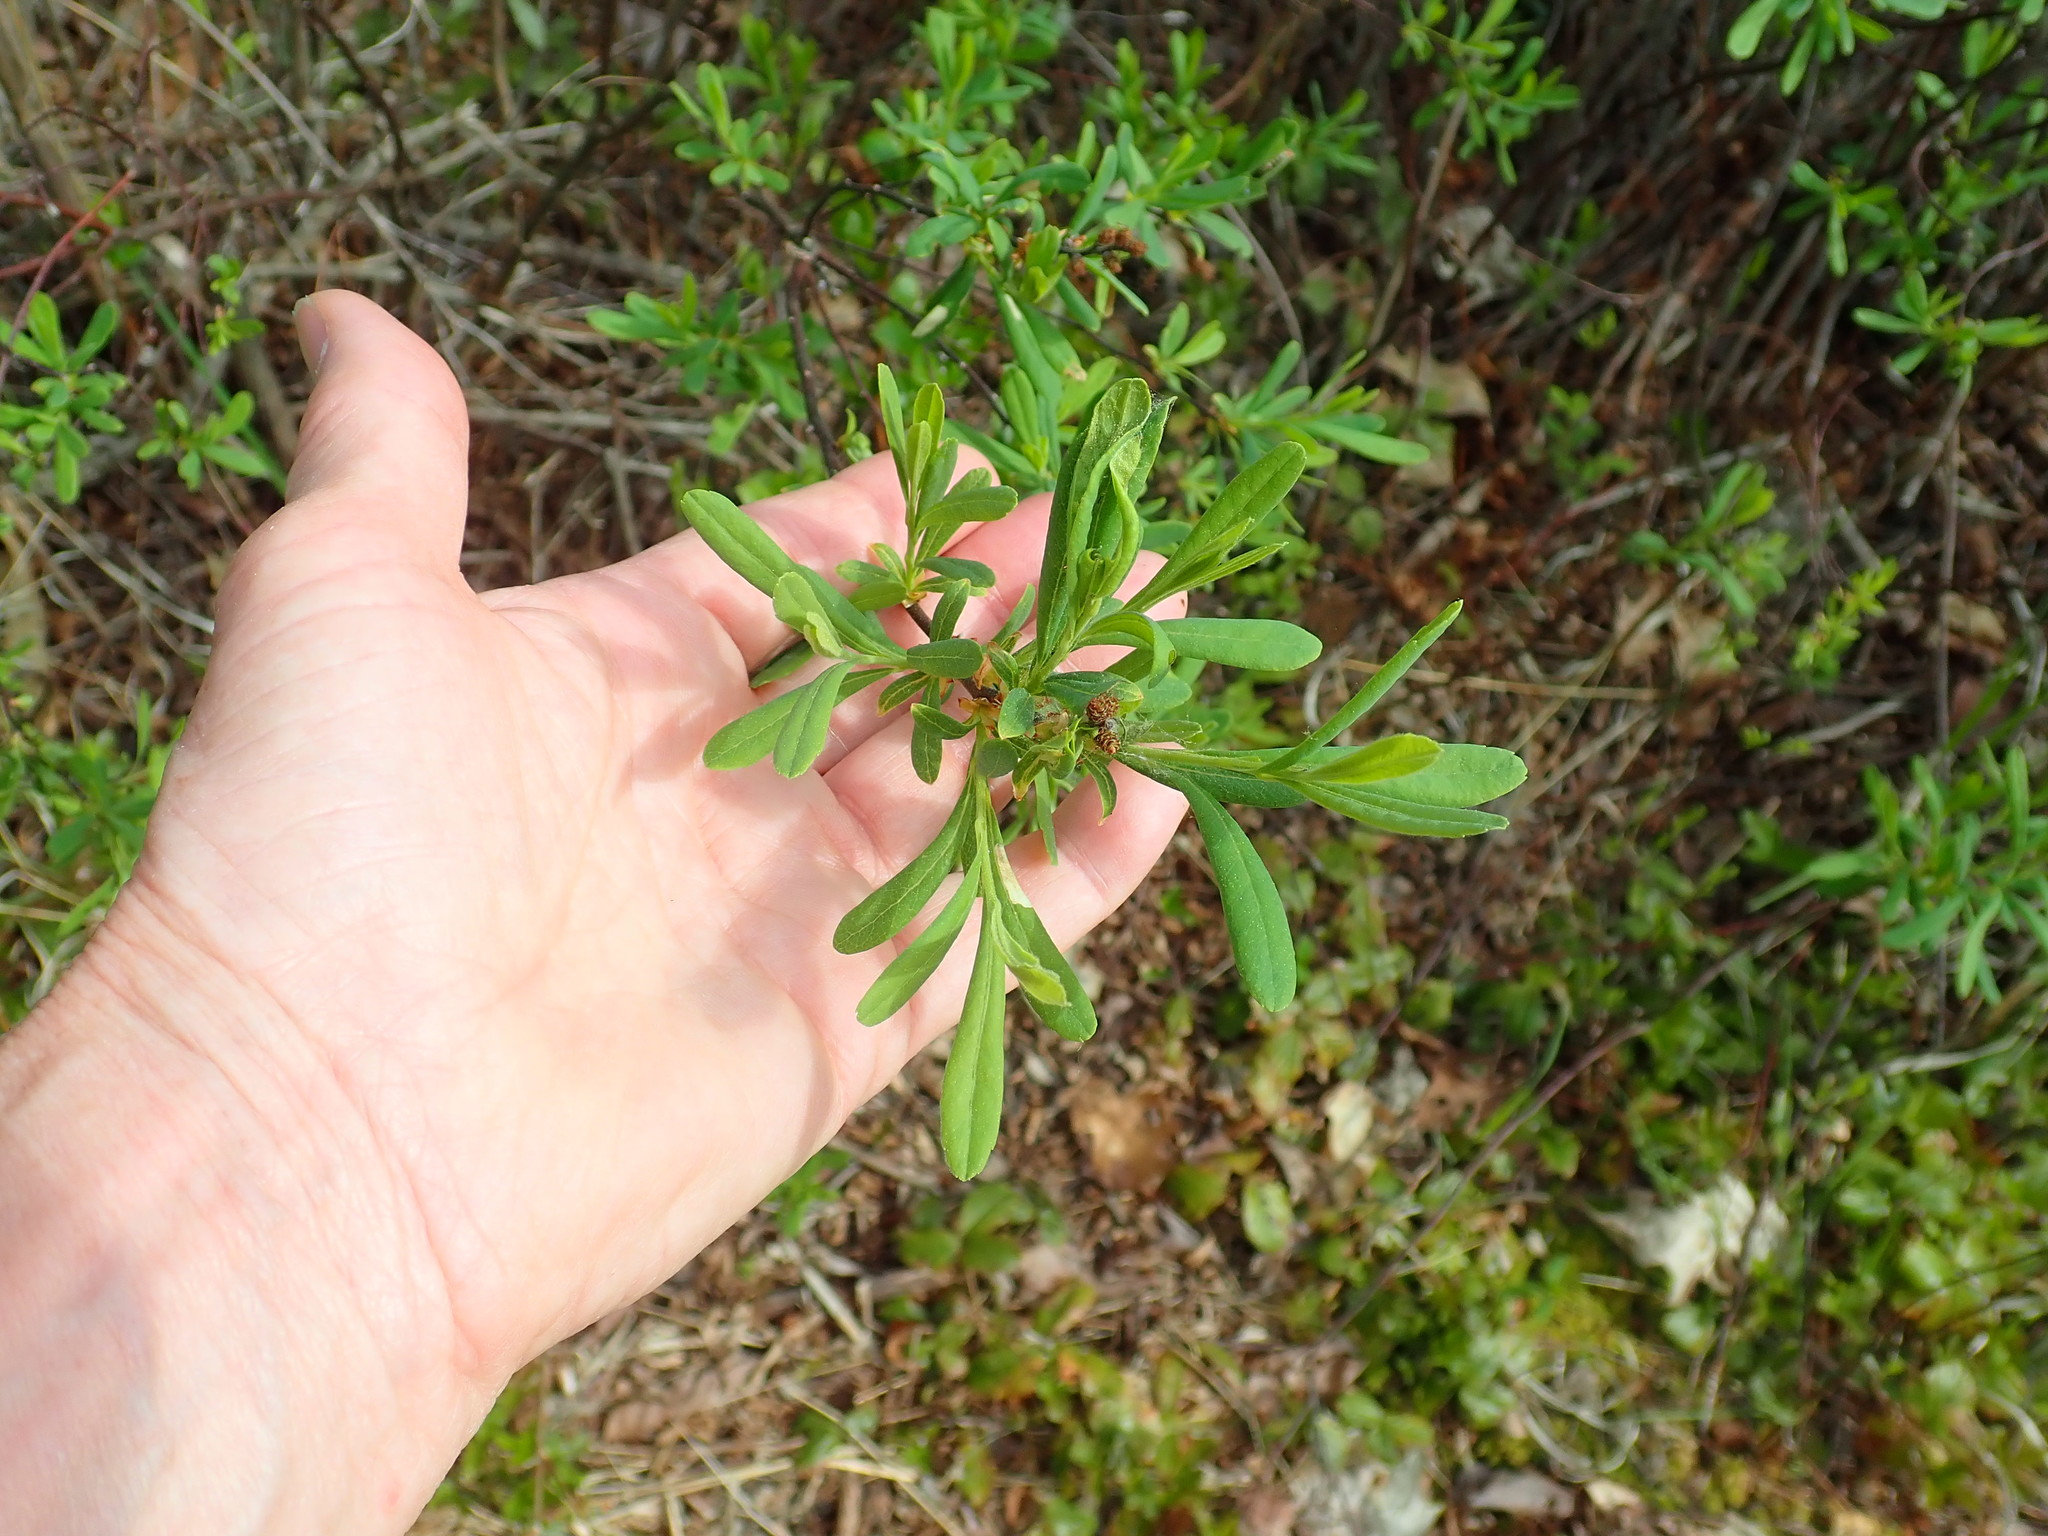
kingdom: Plantae
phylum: Tracheophyta
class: Magnoliopsida
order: Fagales
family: Myricaceae
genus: Myrica
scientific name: Myrica gale
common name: Sweet gale
